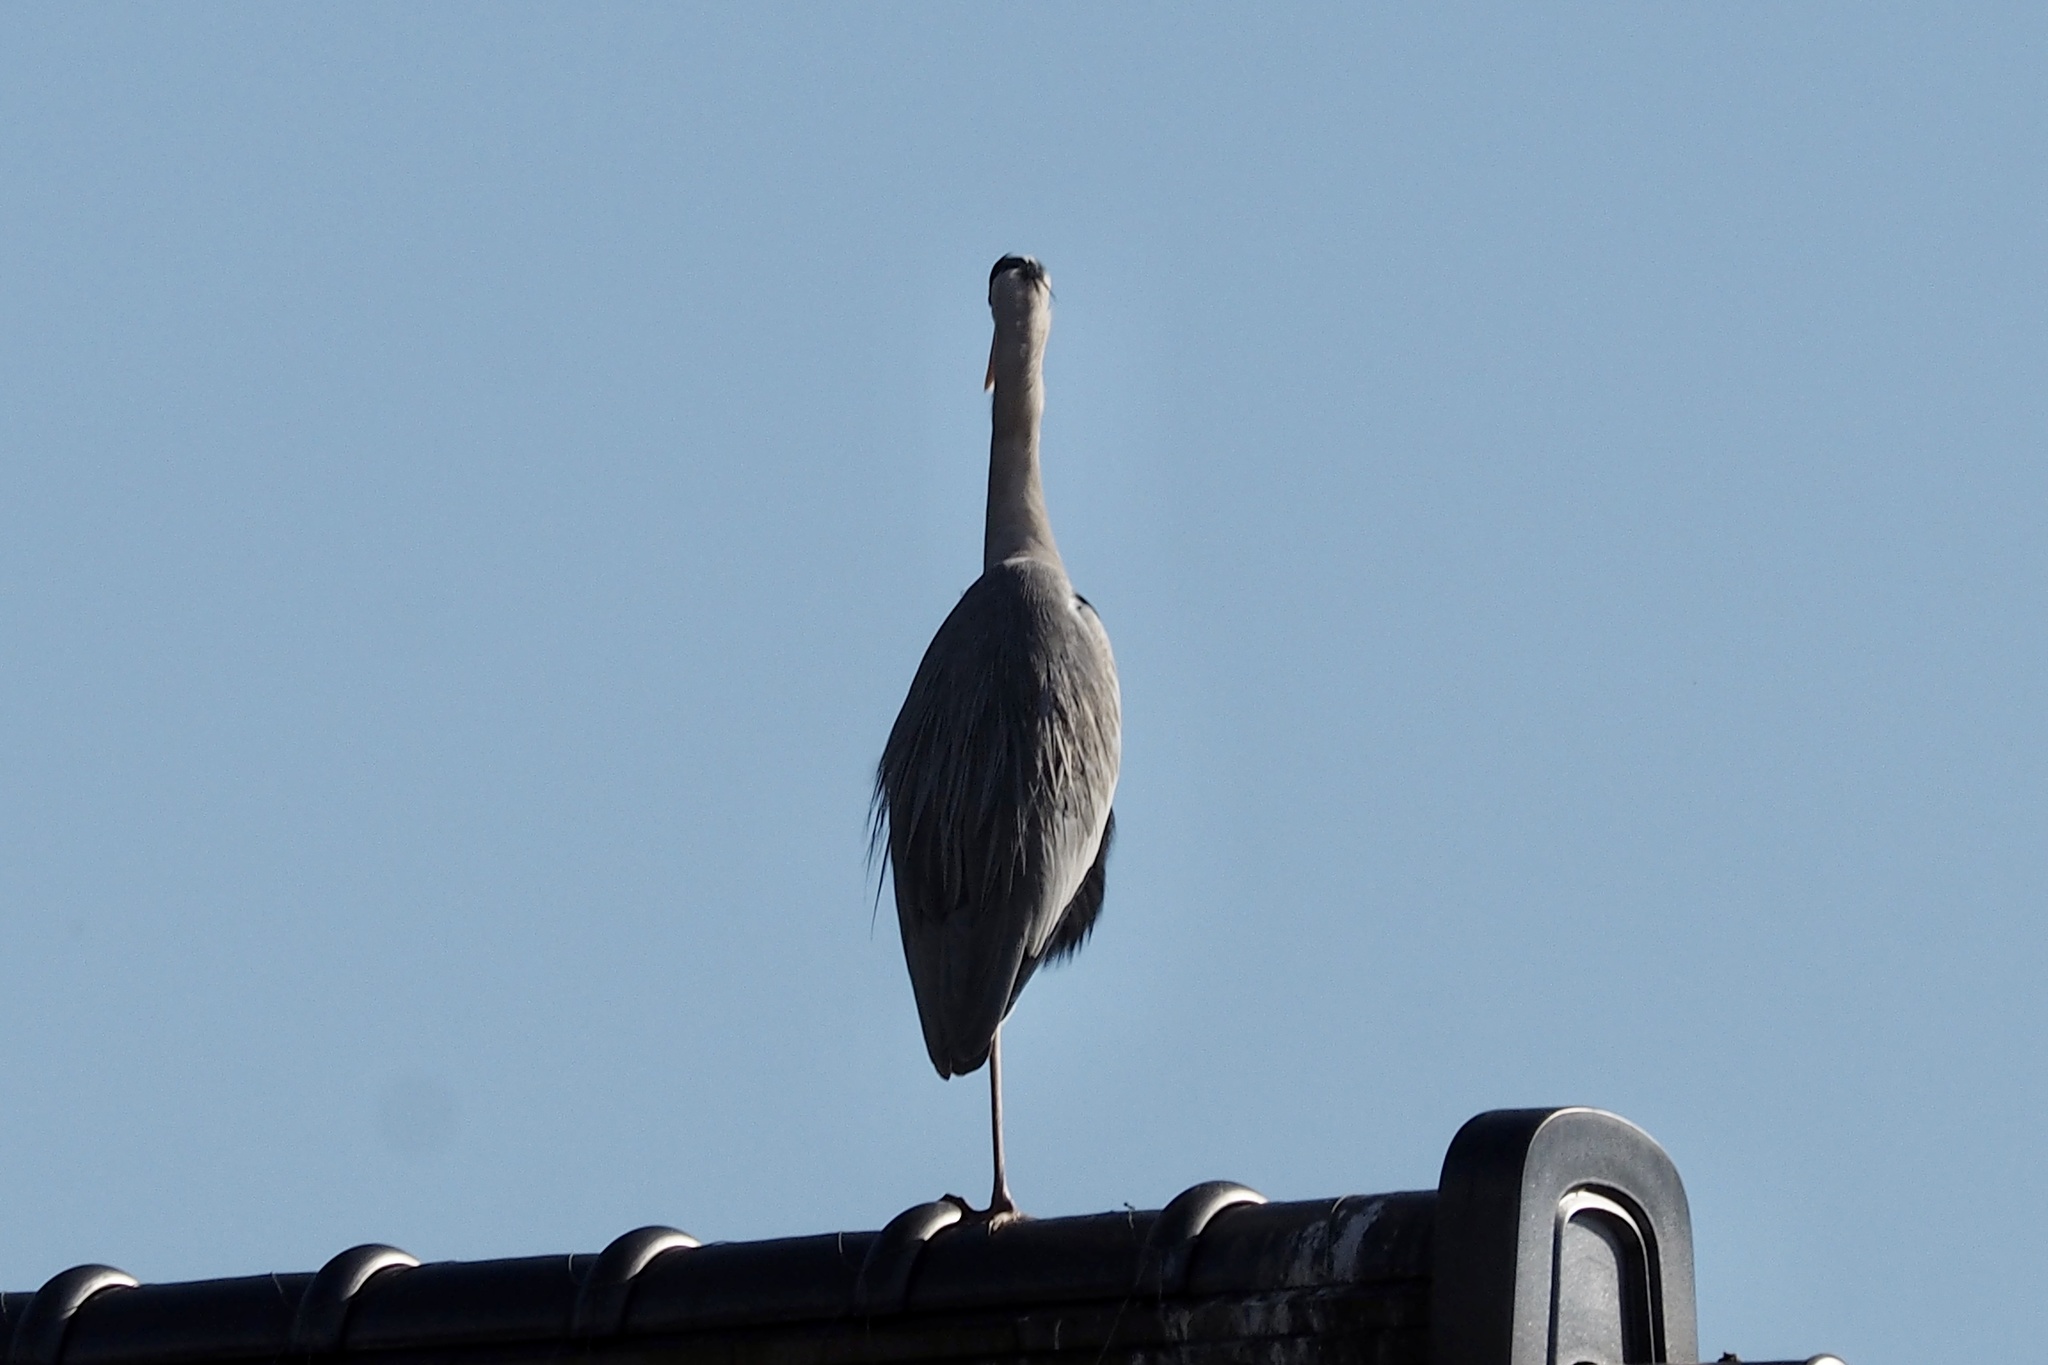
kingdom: Animalia
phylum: Chordata
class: Aves
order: Pelecaniformes
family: Ardeidae
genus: Ardea
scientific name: Ardea cinerea
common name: Grey heron
